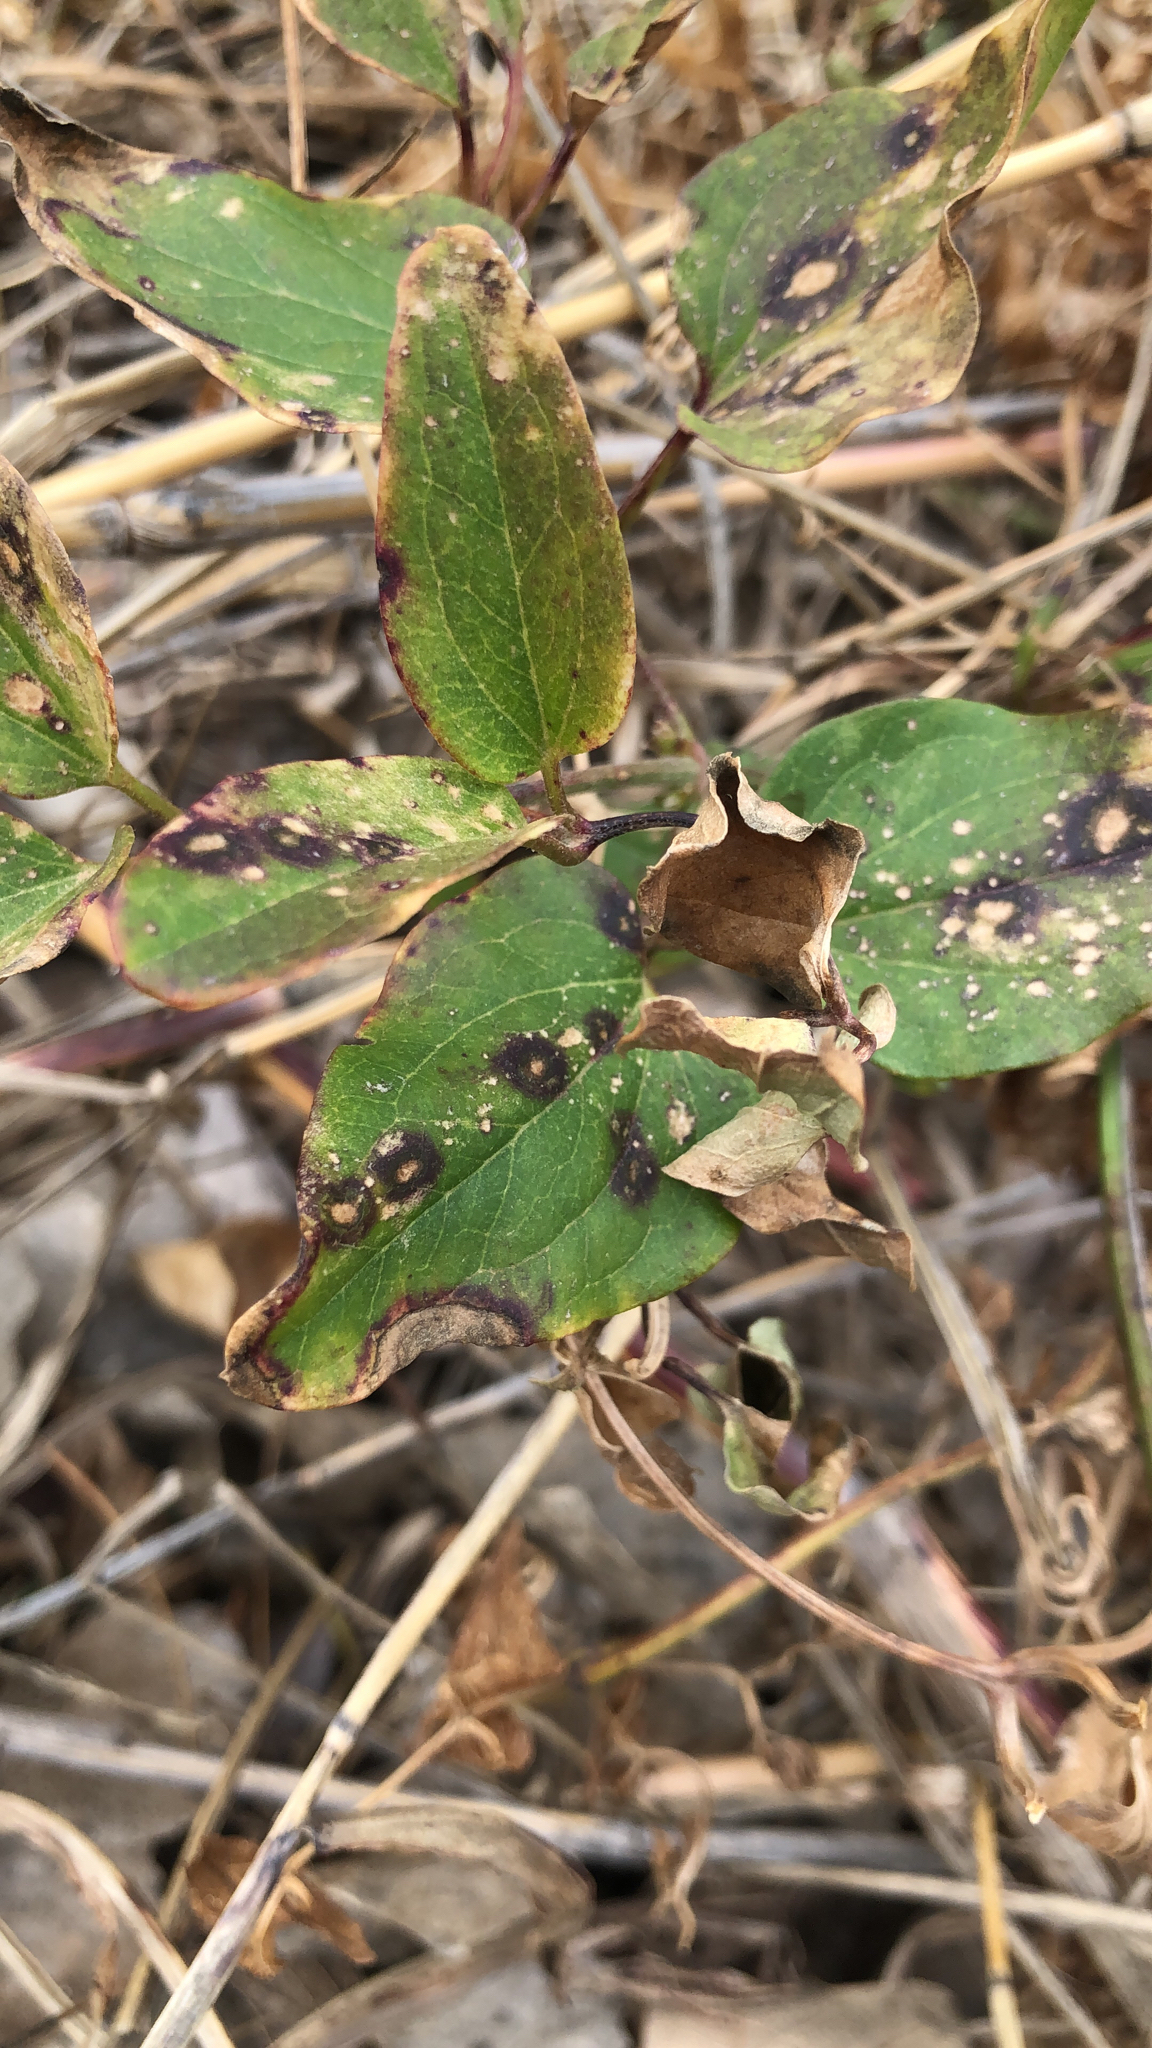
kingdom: Plantae
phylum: Tracheophyta
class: Magnoliopsida
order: Ranunculales
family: Ranunculaceae
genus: Clematis
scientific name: Clematis terniflora
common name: Sweet autumn clematis
